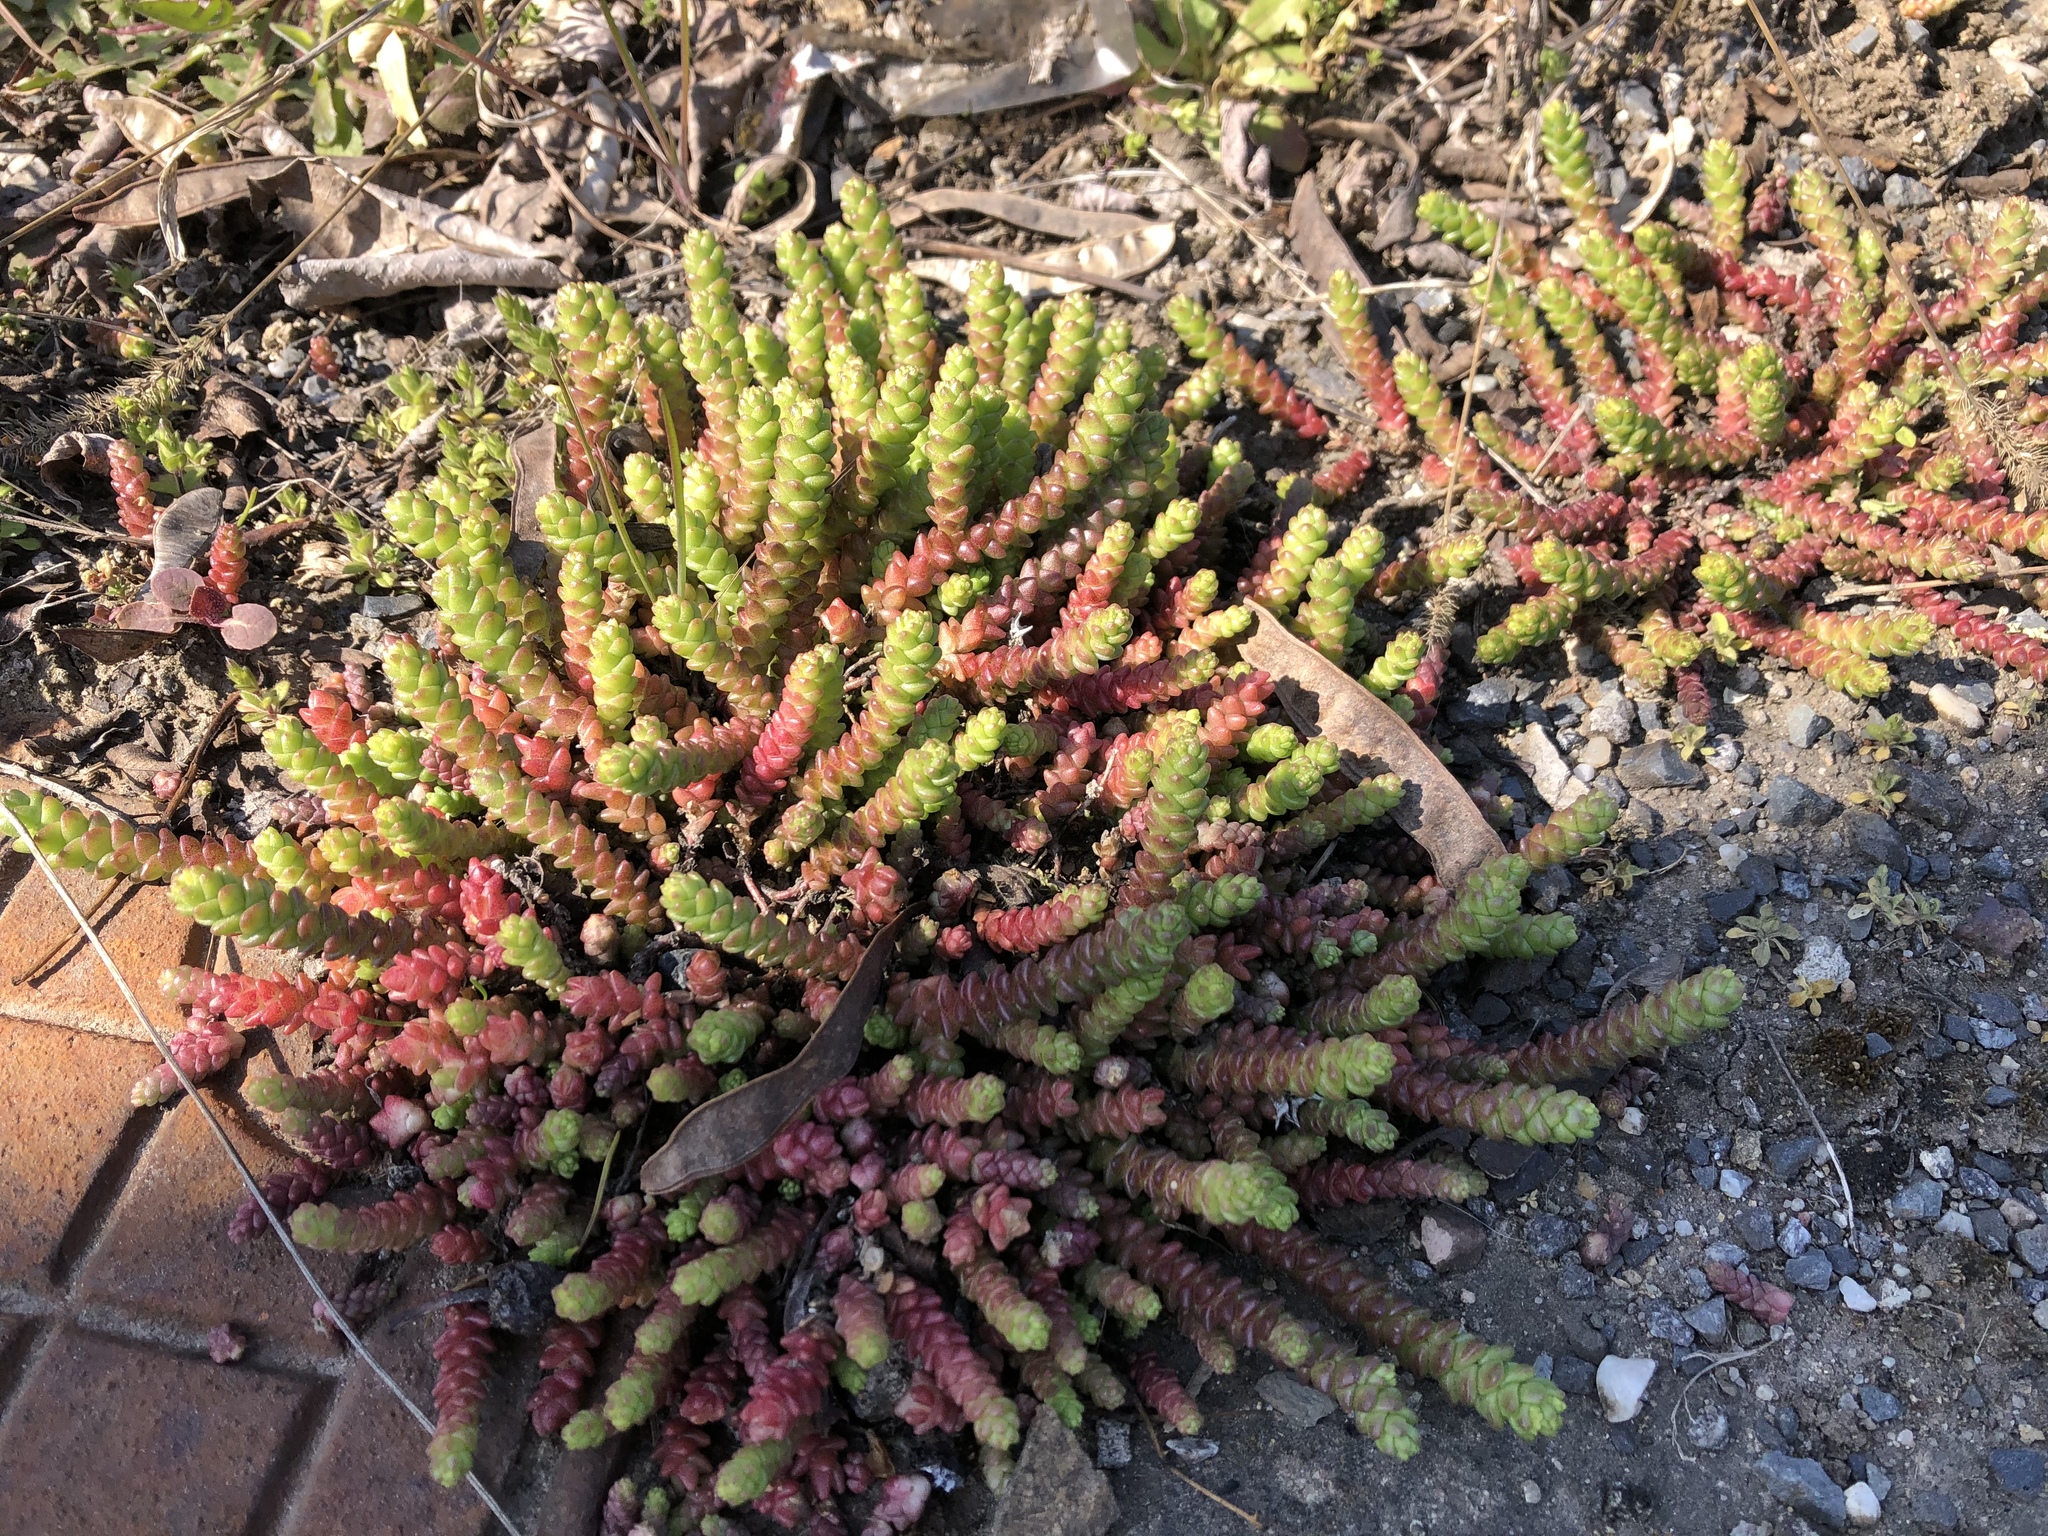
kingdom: Plantae
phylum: Tracheophyta
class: Magnoliopsida
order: Saxifragales
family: Crassulaceae
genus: Sedum
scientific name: Sedum acre
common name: Biting stonecrop
